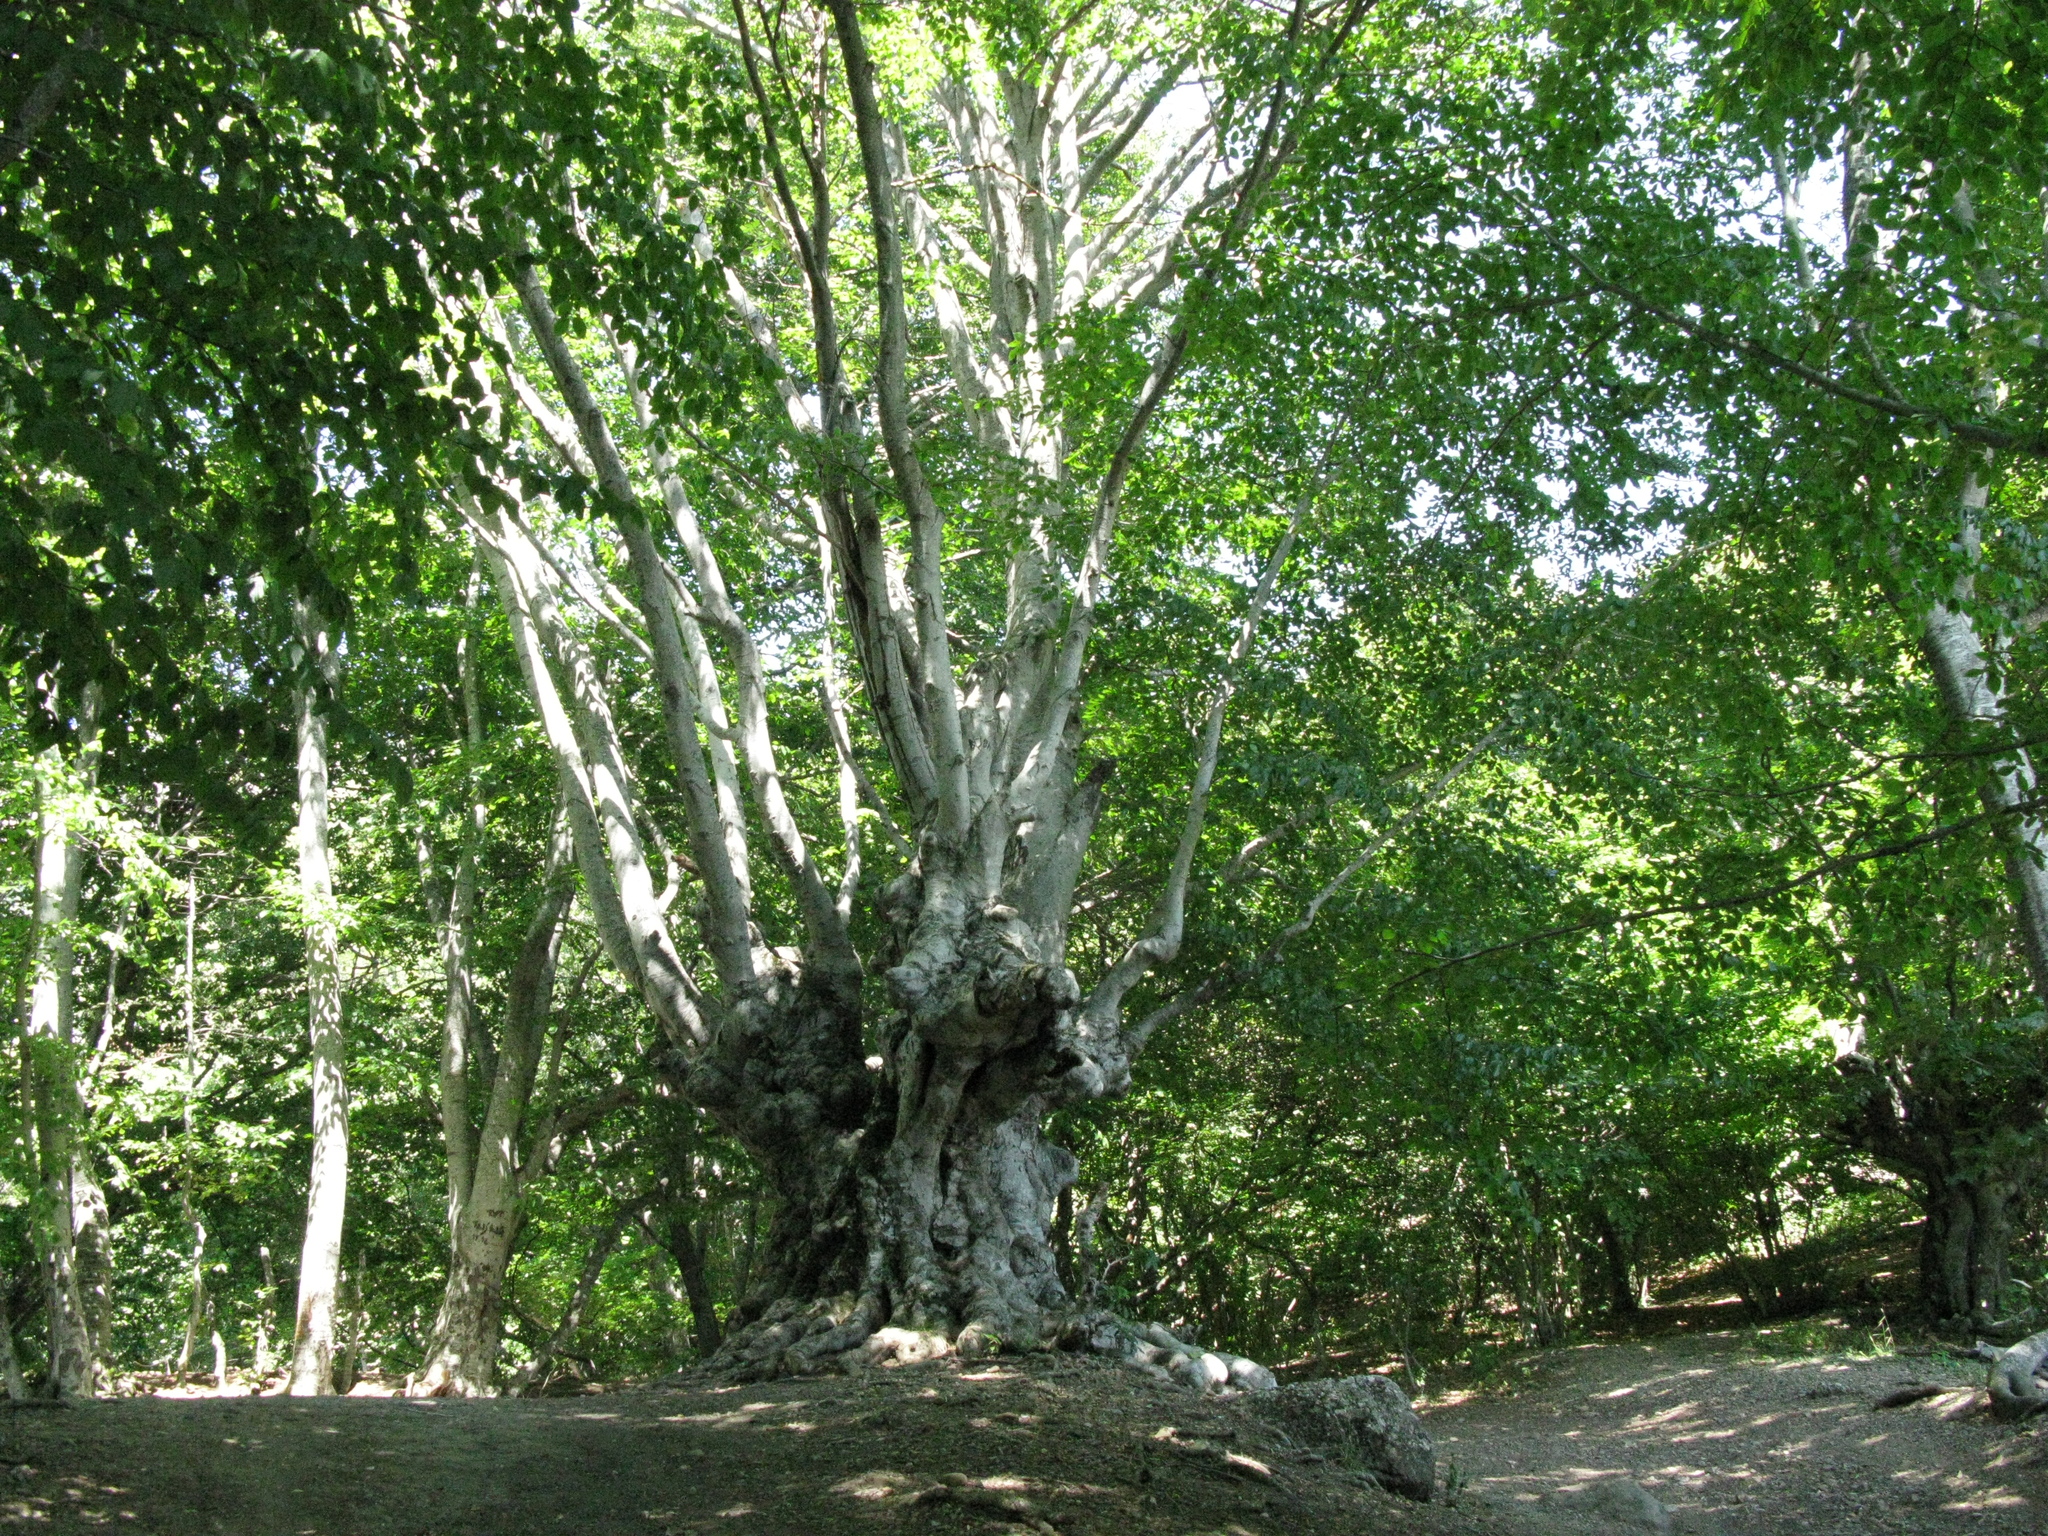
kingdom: Plantae
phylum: Tracheophyta
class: Magnoliopsida
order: Fagales
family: Fagaceae
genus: Fagus
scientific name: Fagus taurica
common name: Crimean beech
